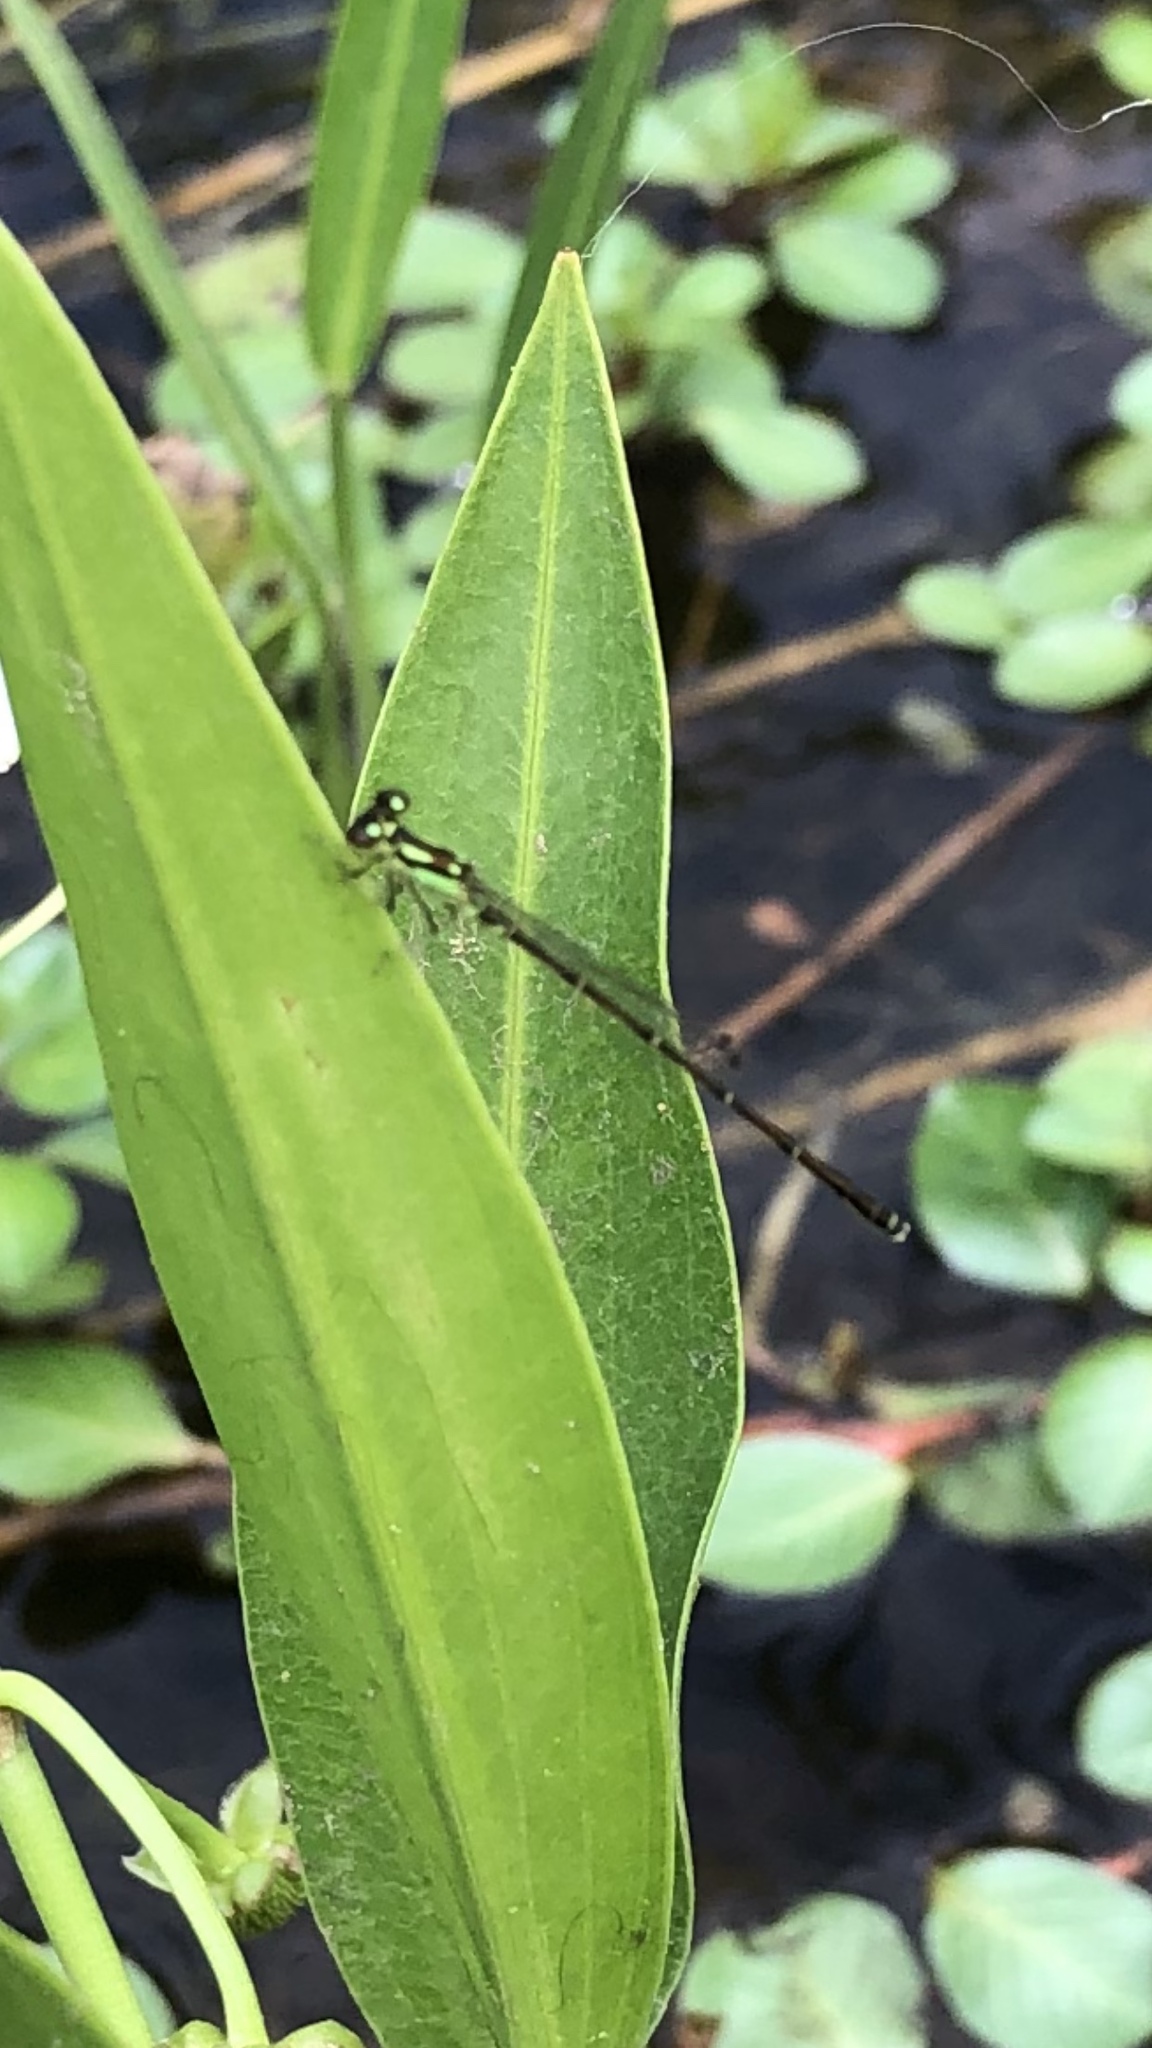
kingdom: Animalia
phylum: Arthropoda
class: Insecta
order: Odonata
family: Coenagrionidae
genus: Ischnura
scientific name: Ischnura posita
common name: Fragile forktail
